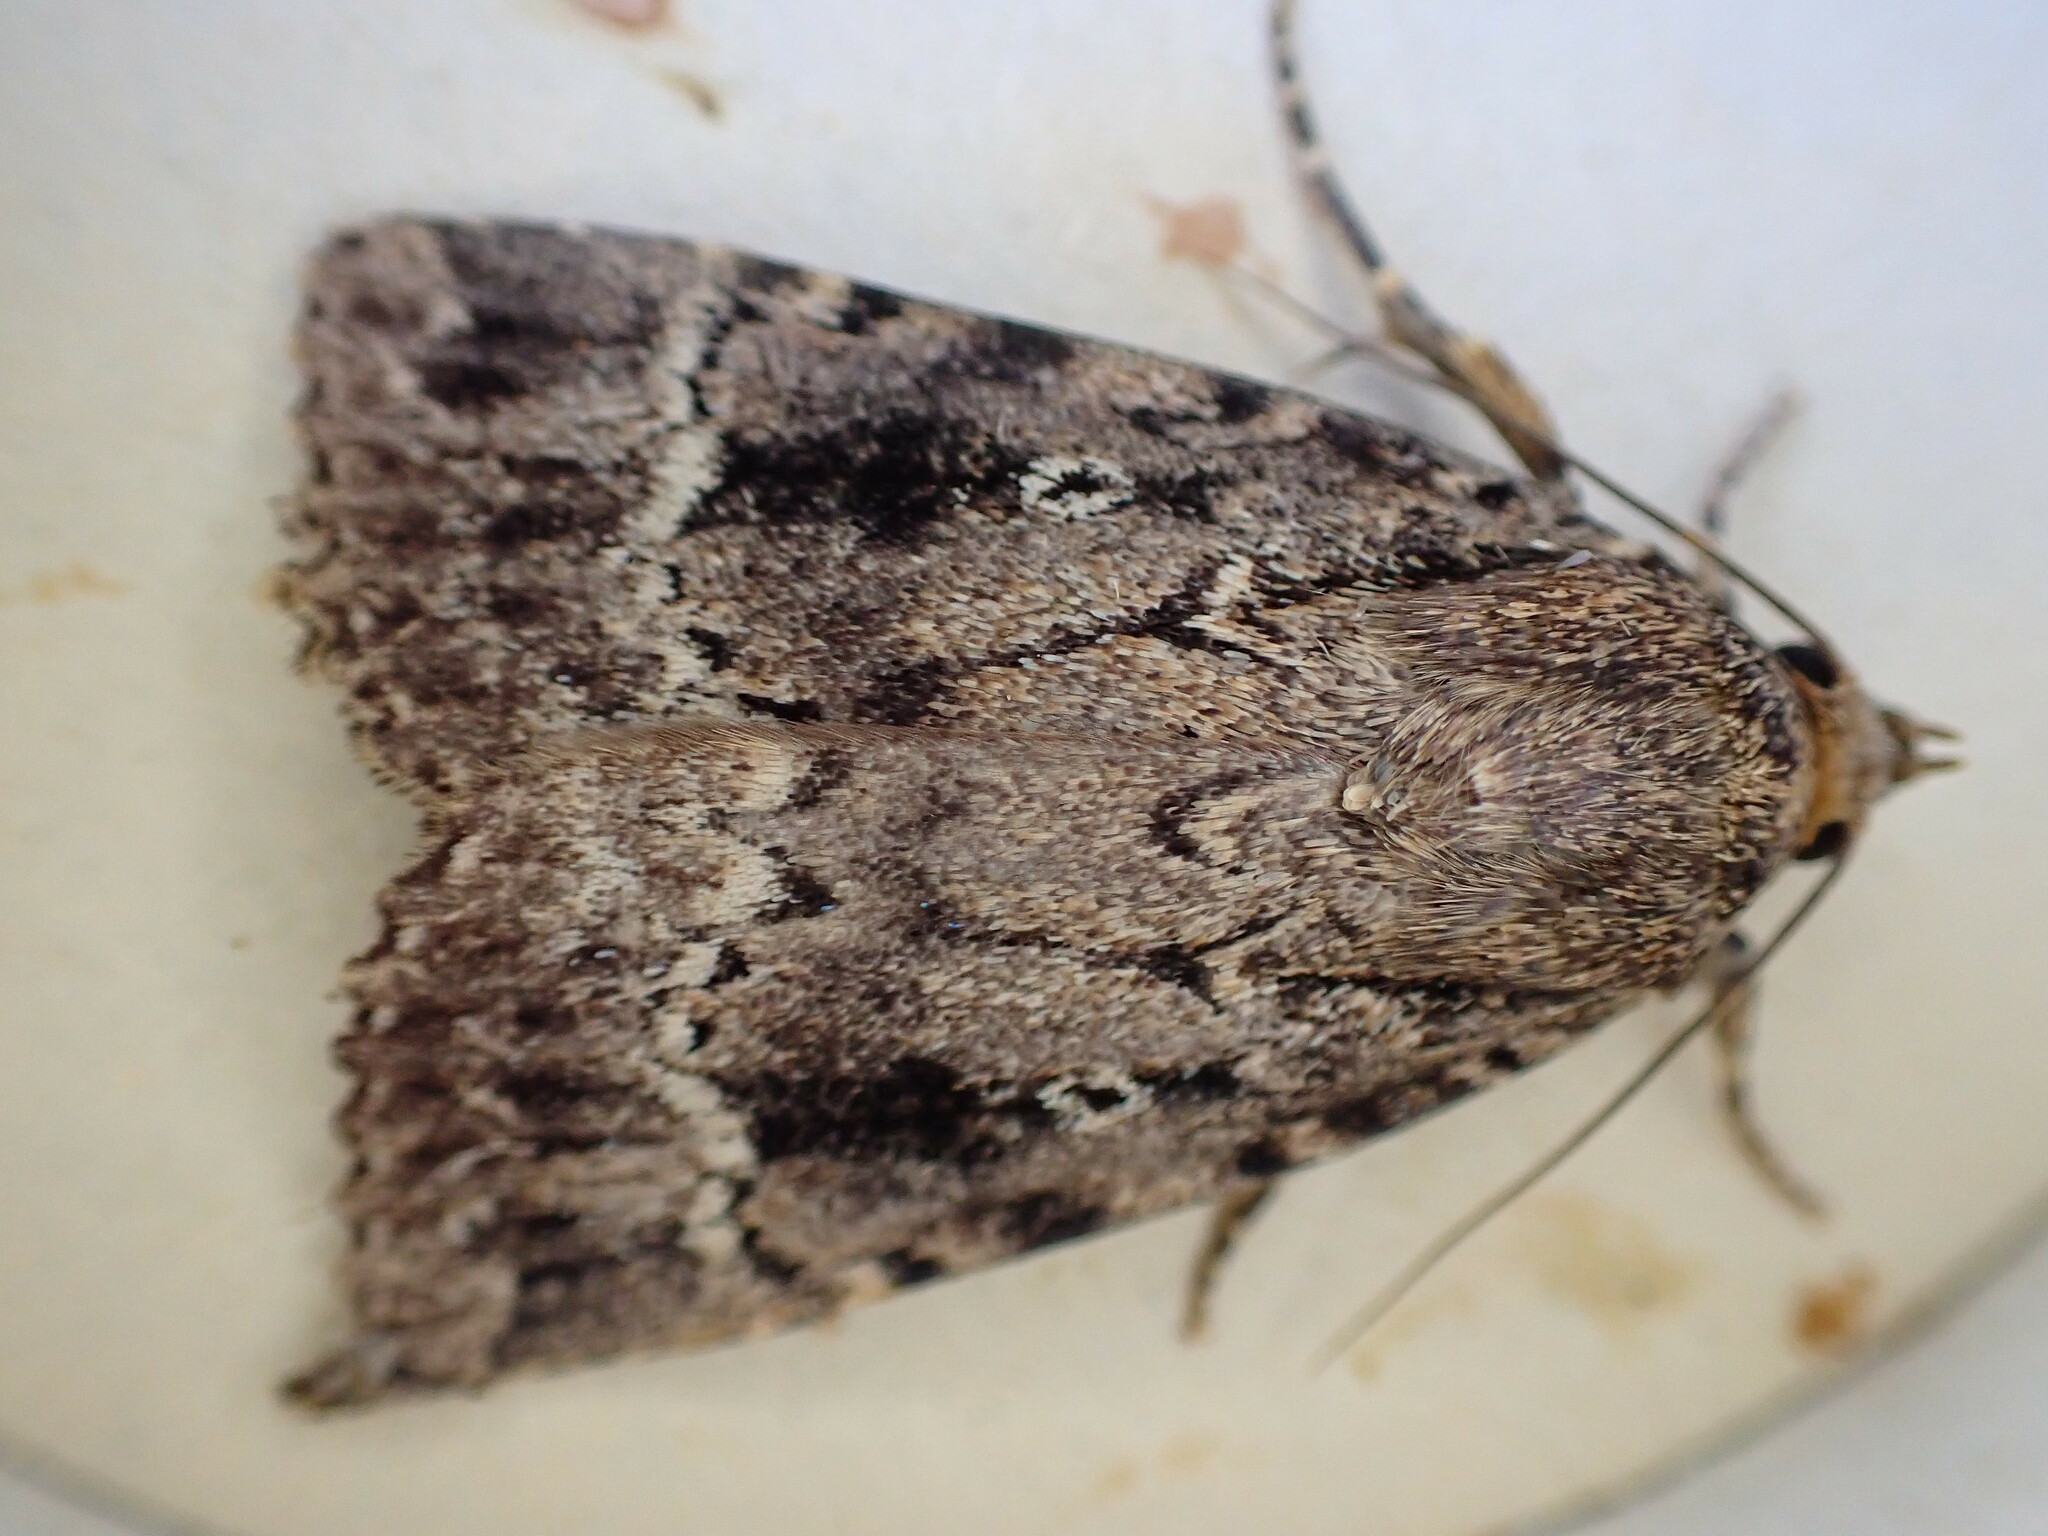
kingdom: Animalia
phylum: Arthropoda
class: Insecta
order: Lepidoptera
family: Noctuidae
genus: Amphipyra
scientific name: Amphipyra
